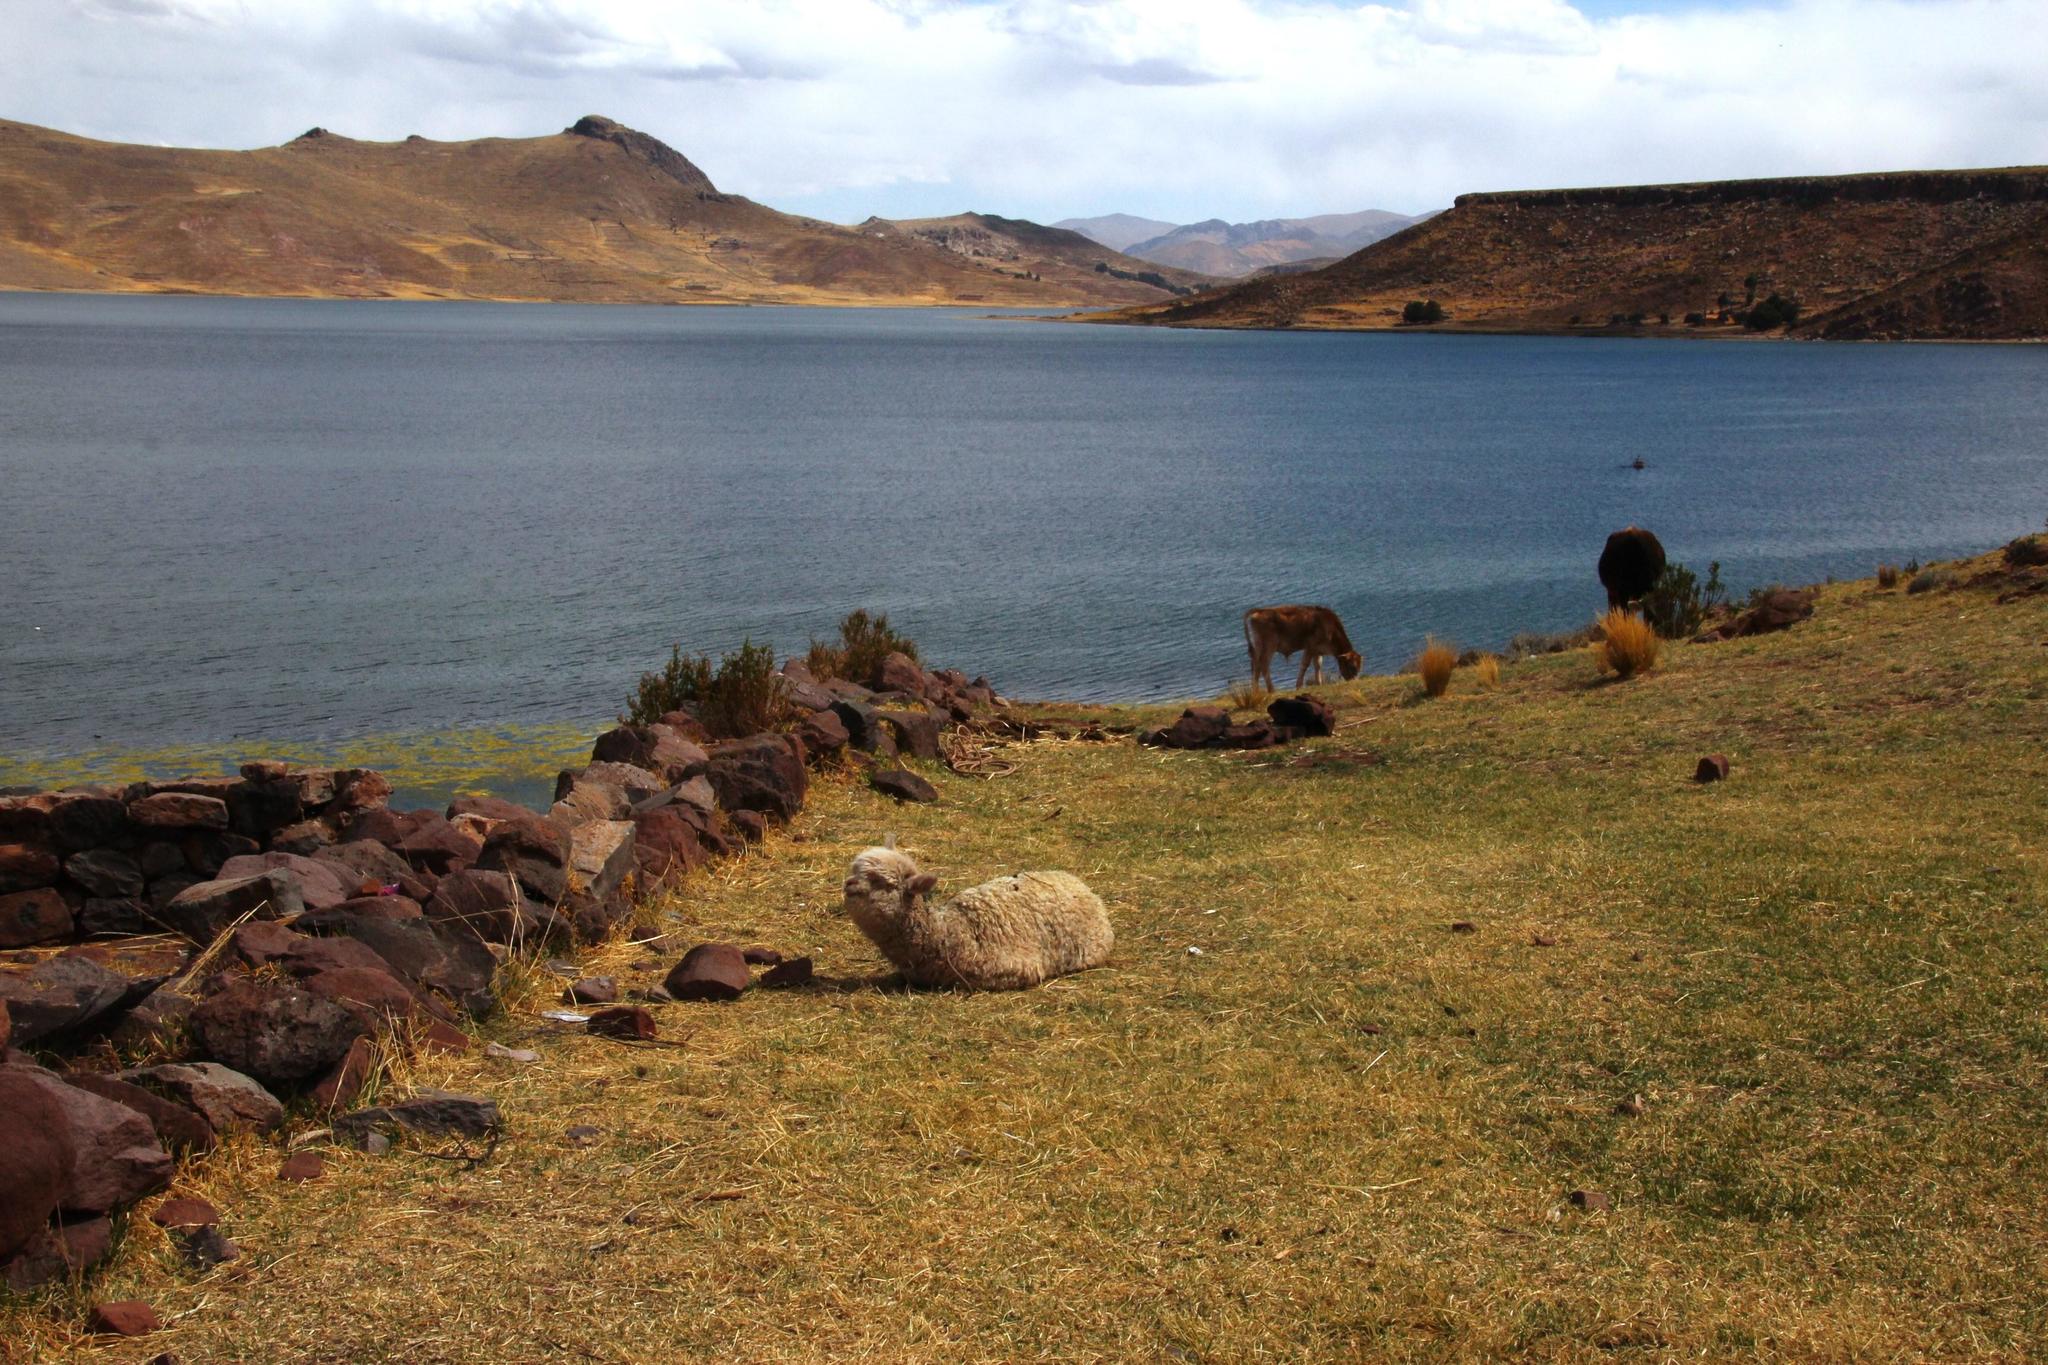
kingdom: Animalia
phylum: Chordata
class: Mammalia
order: Artiodactyla
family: Camelidae
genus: Vicugna
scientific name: Vicugna pacos
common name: Alpaca
